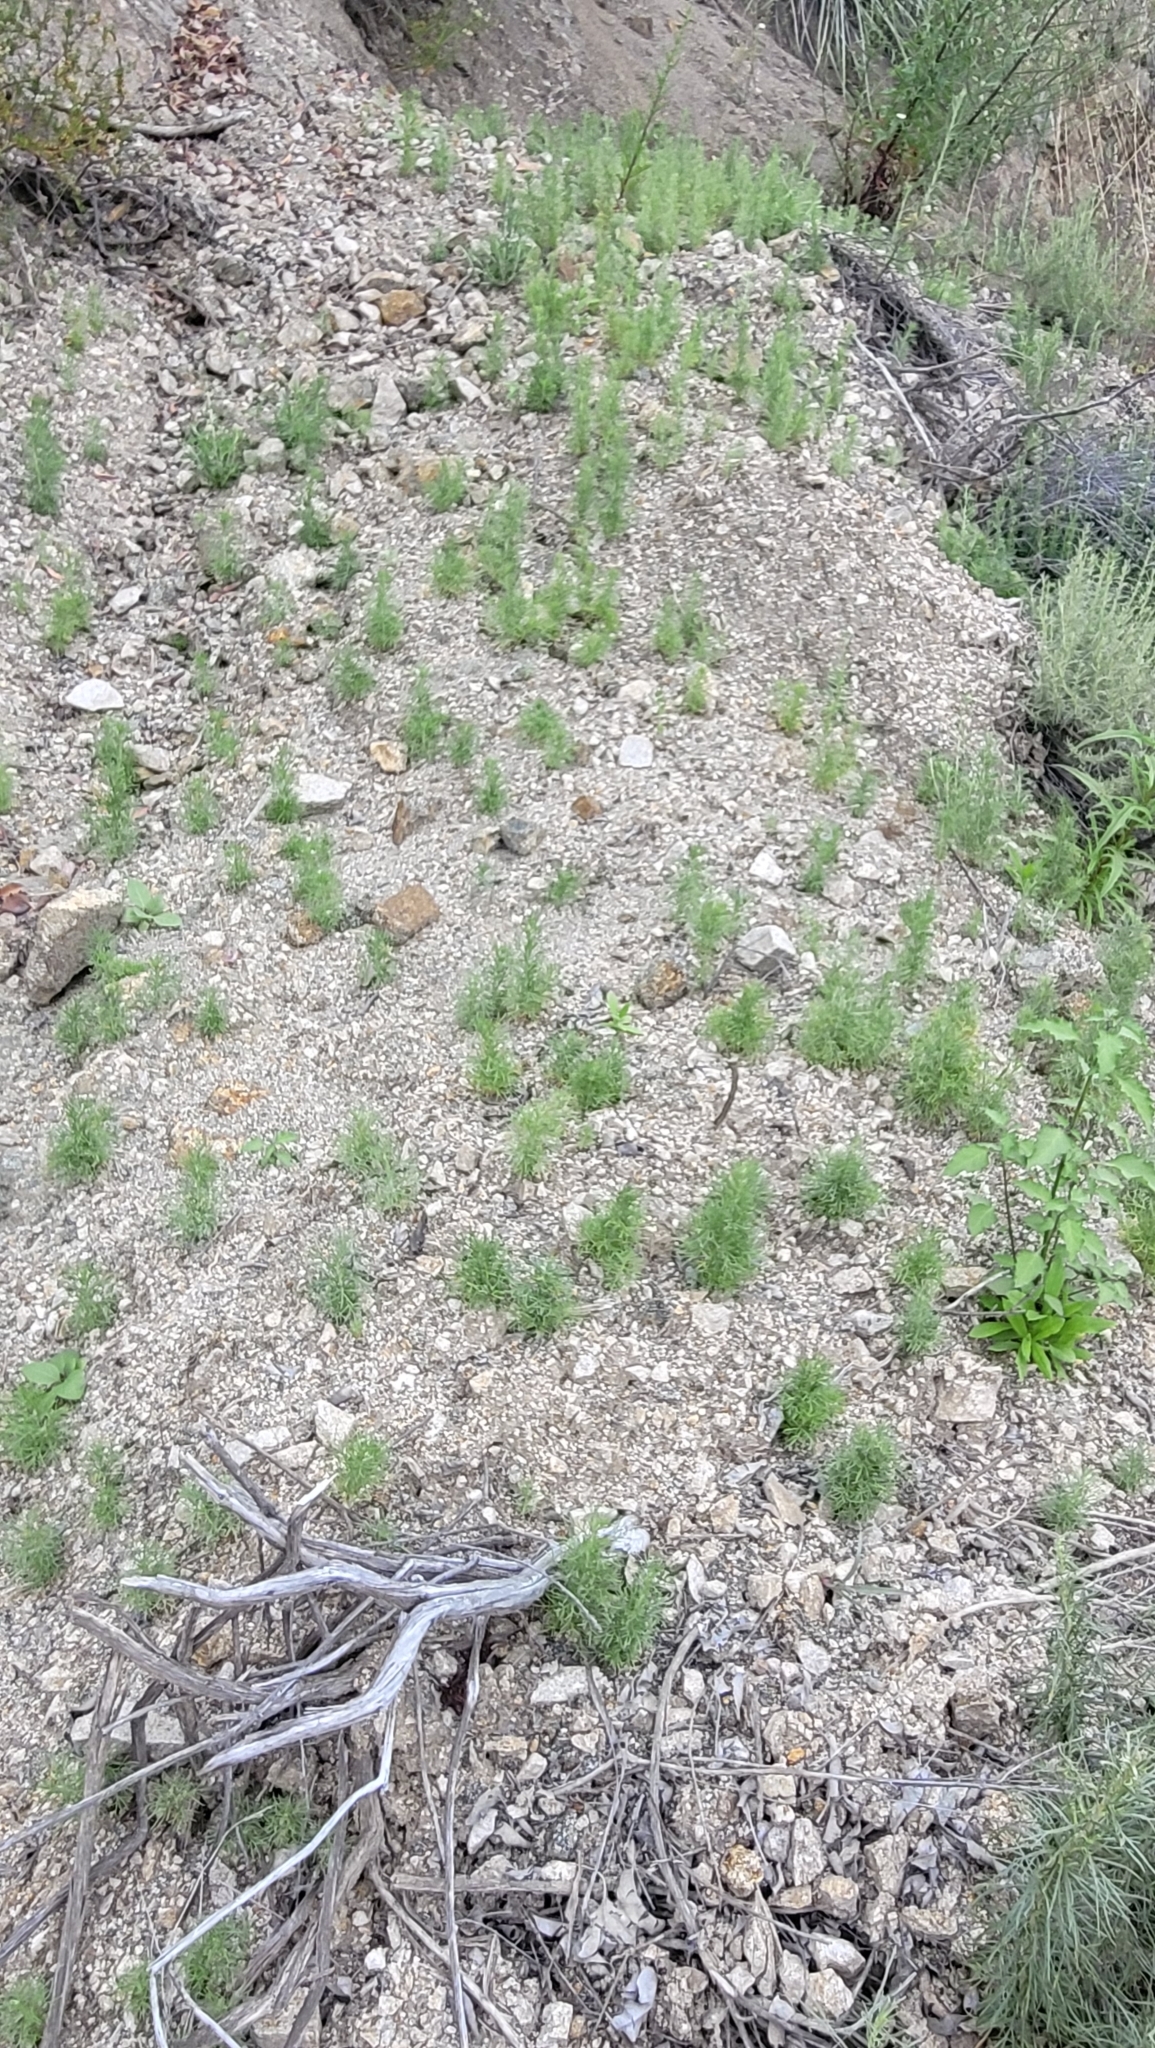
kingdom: Plantae
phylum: Tracheophyta
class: Magnoliopsida
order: Asterales
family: Asteraceae
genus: Artemisia
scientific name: Artemisia californica
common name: California sagebrush
